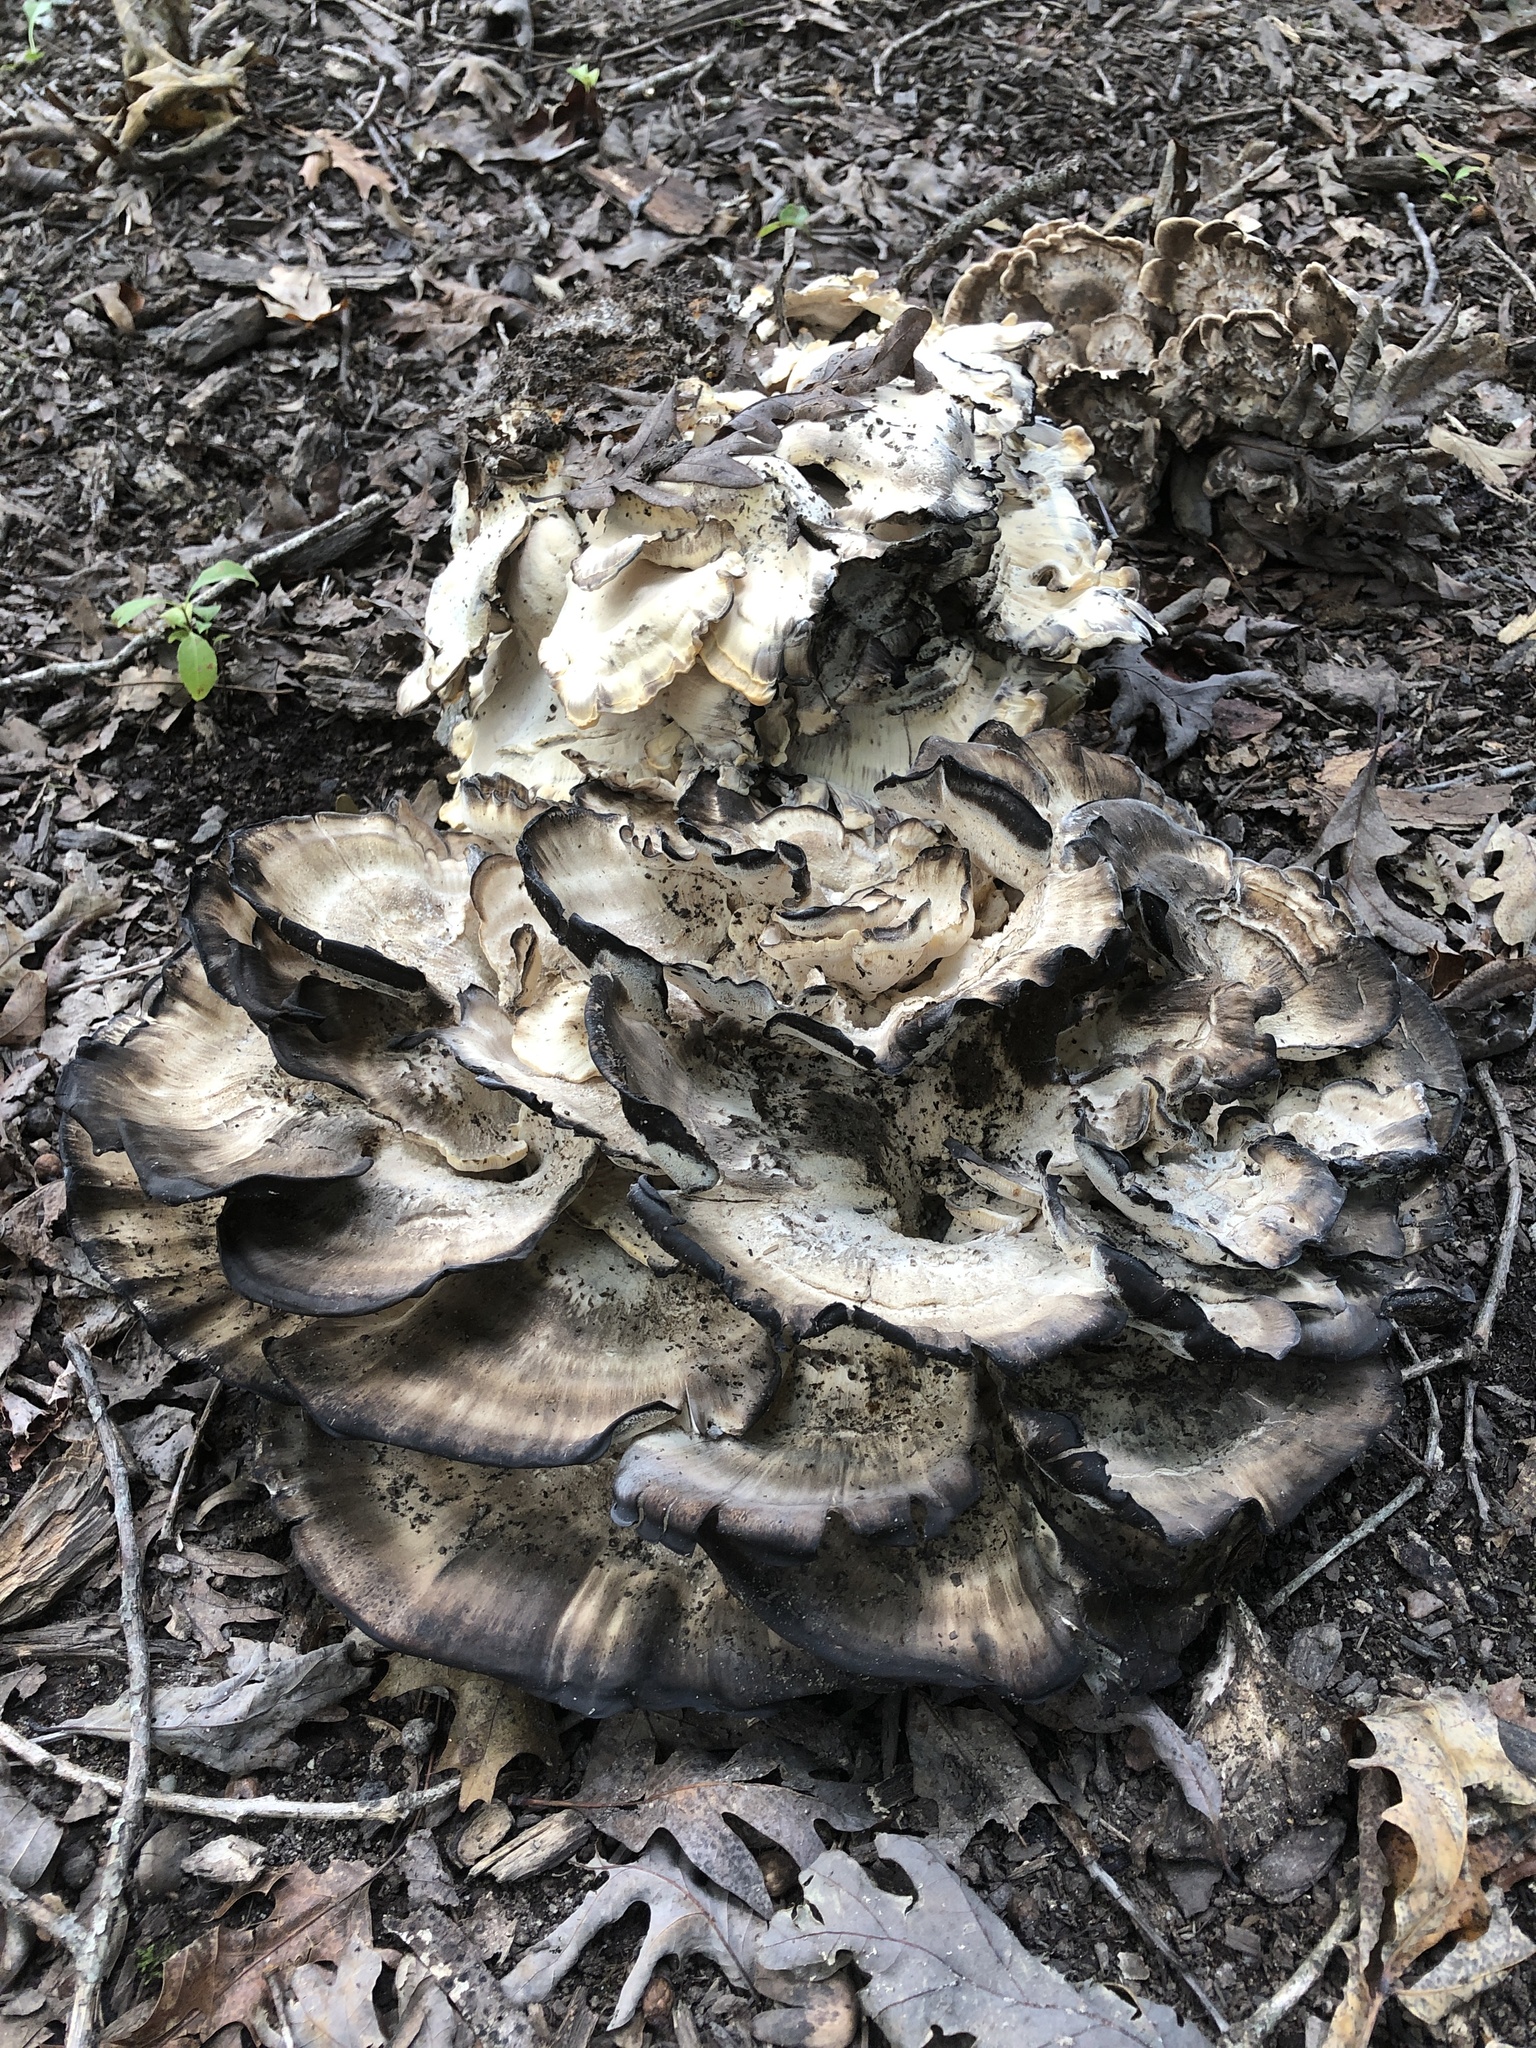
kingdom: Fungi
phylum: Basidiomycota
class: Agaricomycetes
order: Polyporales
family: Meripilaceae
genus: Meripilus
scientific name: Meripilus sumstinei
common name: Black-staining polypore
